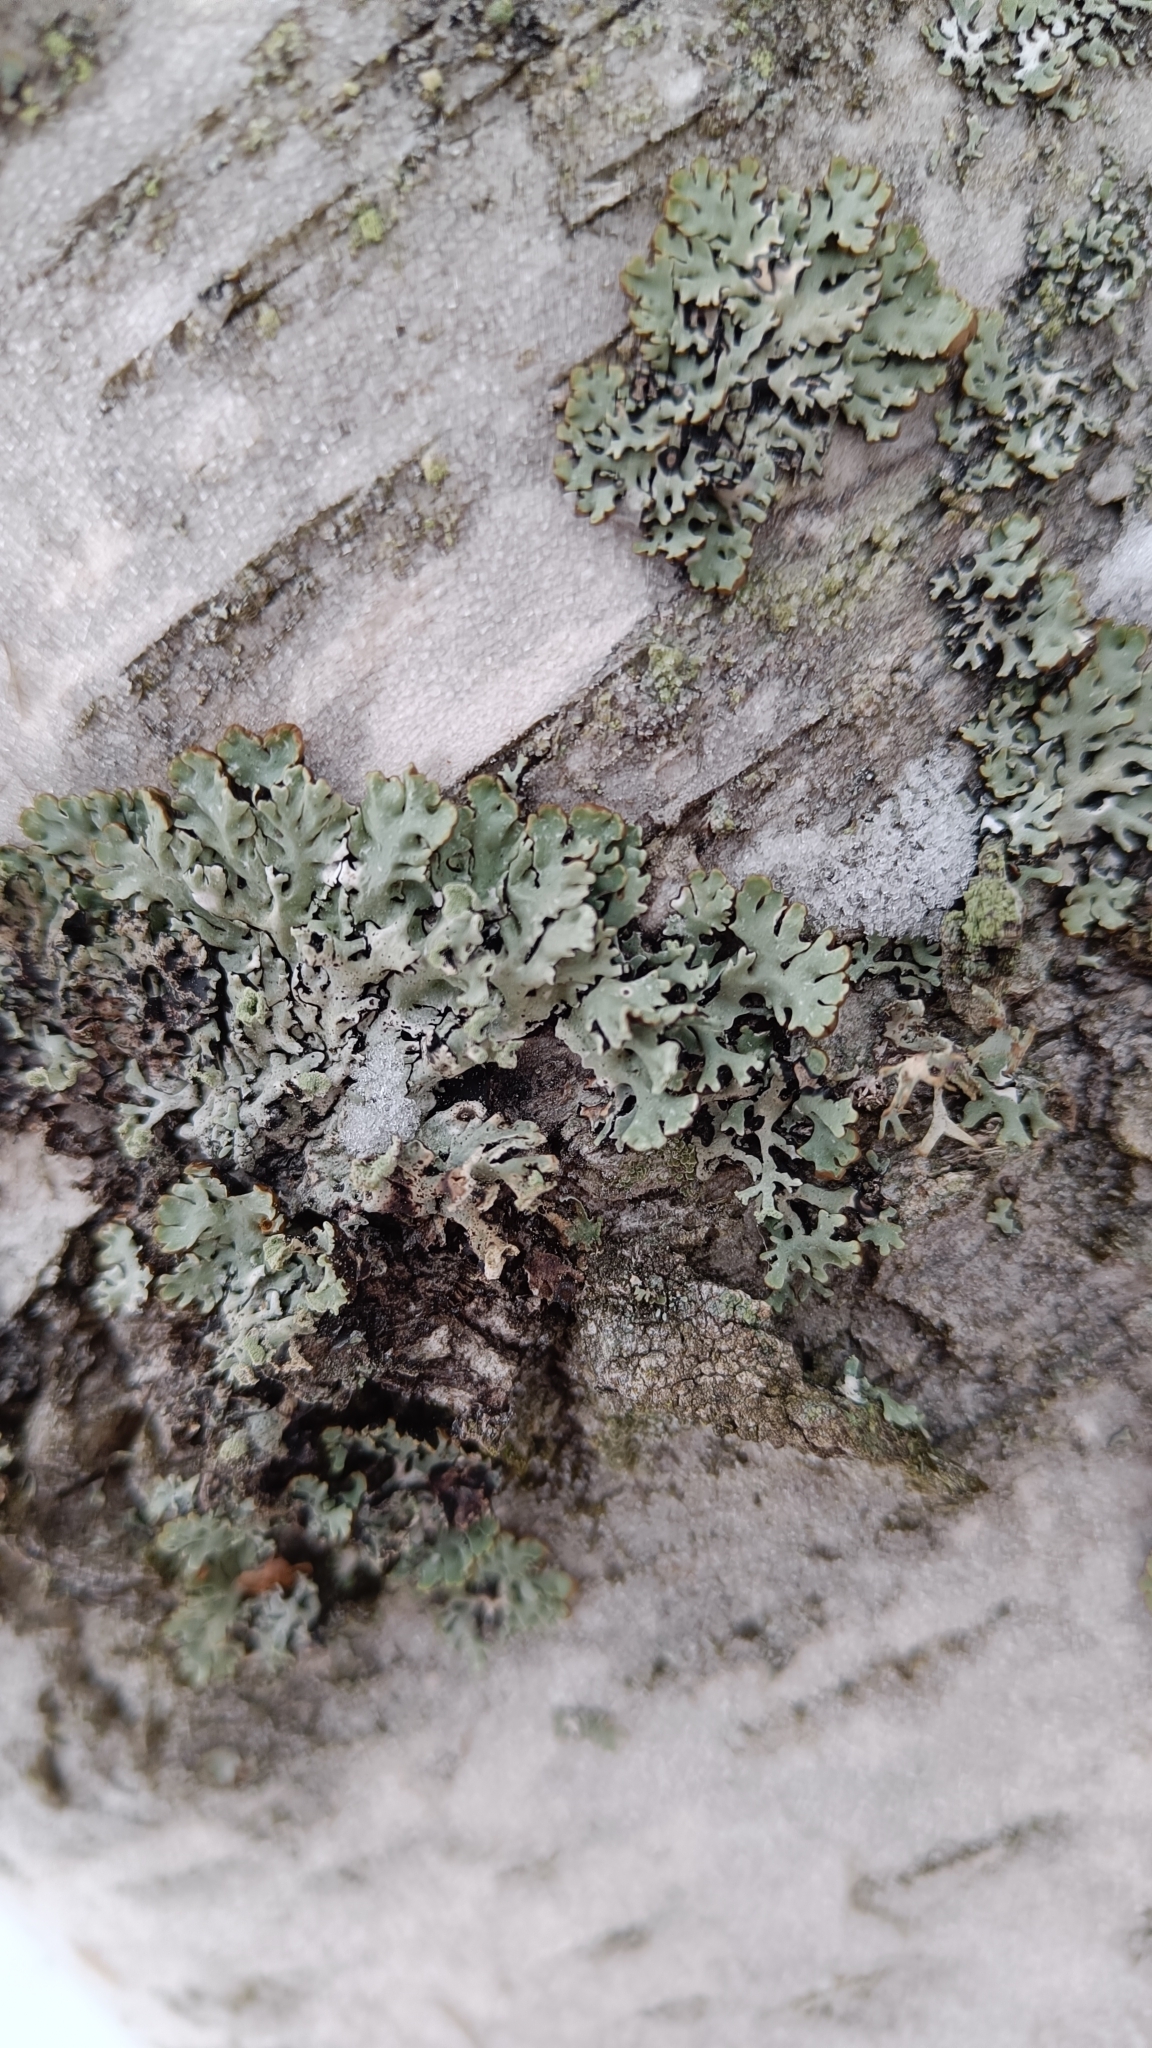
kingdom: Fungi
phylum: Ascomycota
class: Lecanoromycetes
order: Lecanorales
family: Parmeliaceae
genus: Hypogymnia
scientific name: Hypogymnia physodes
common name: Dark crottle
